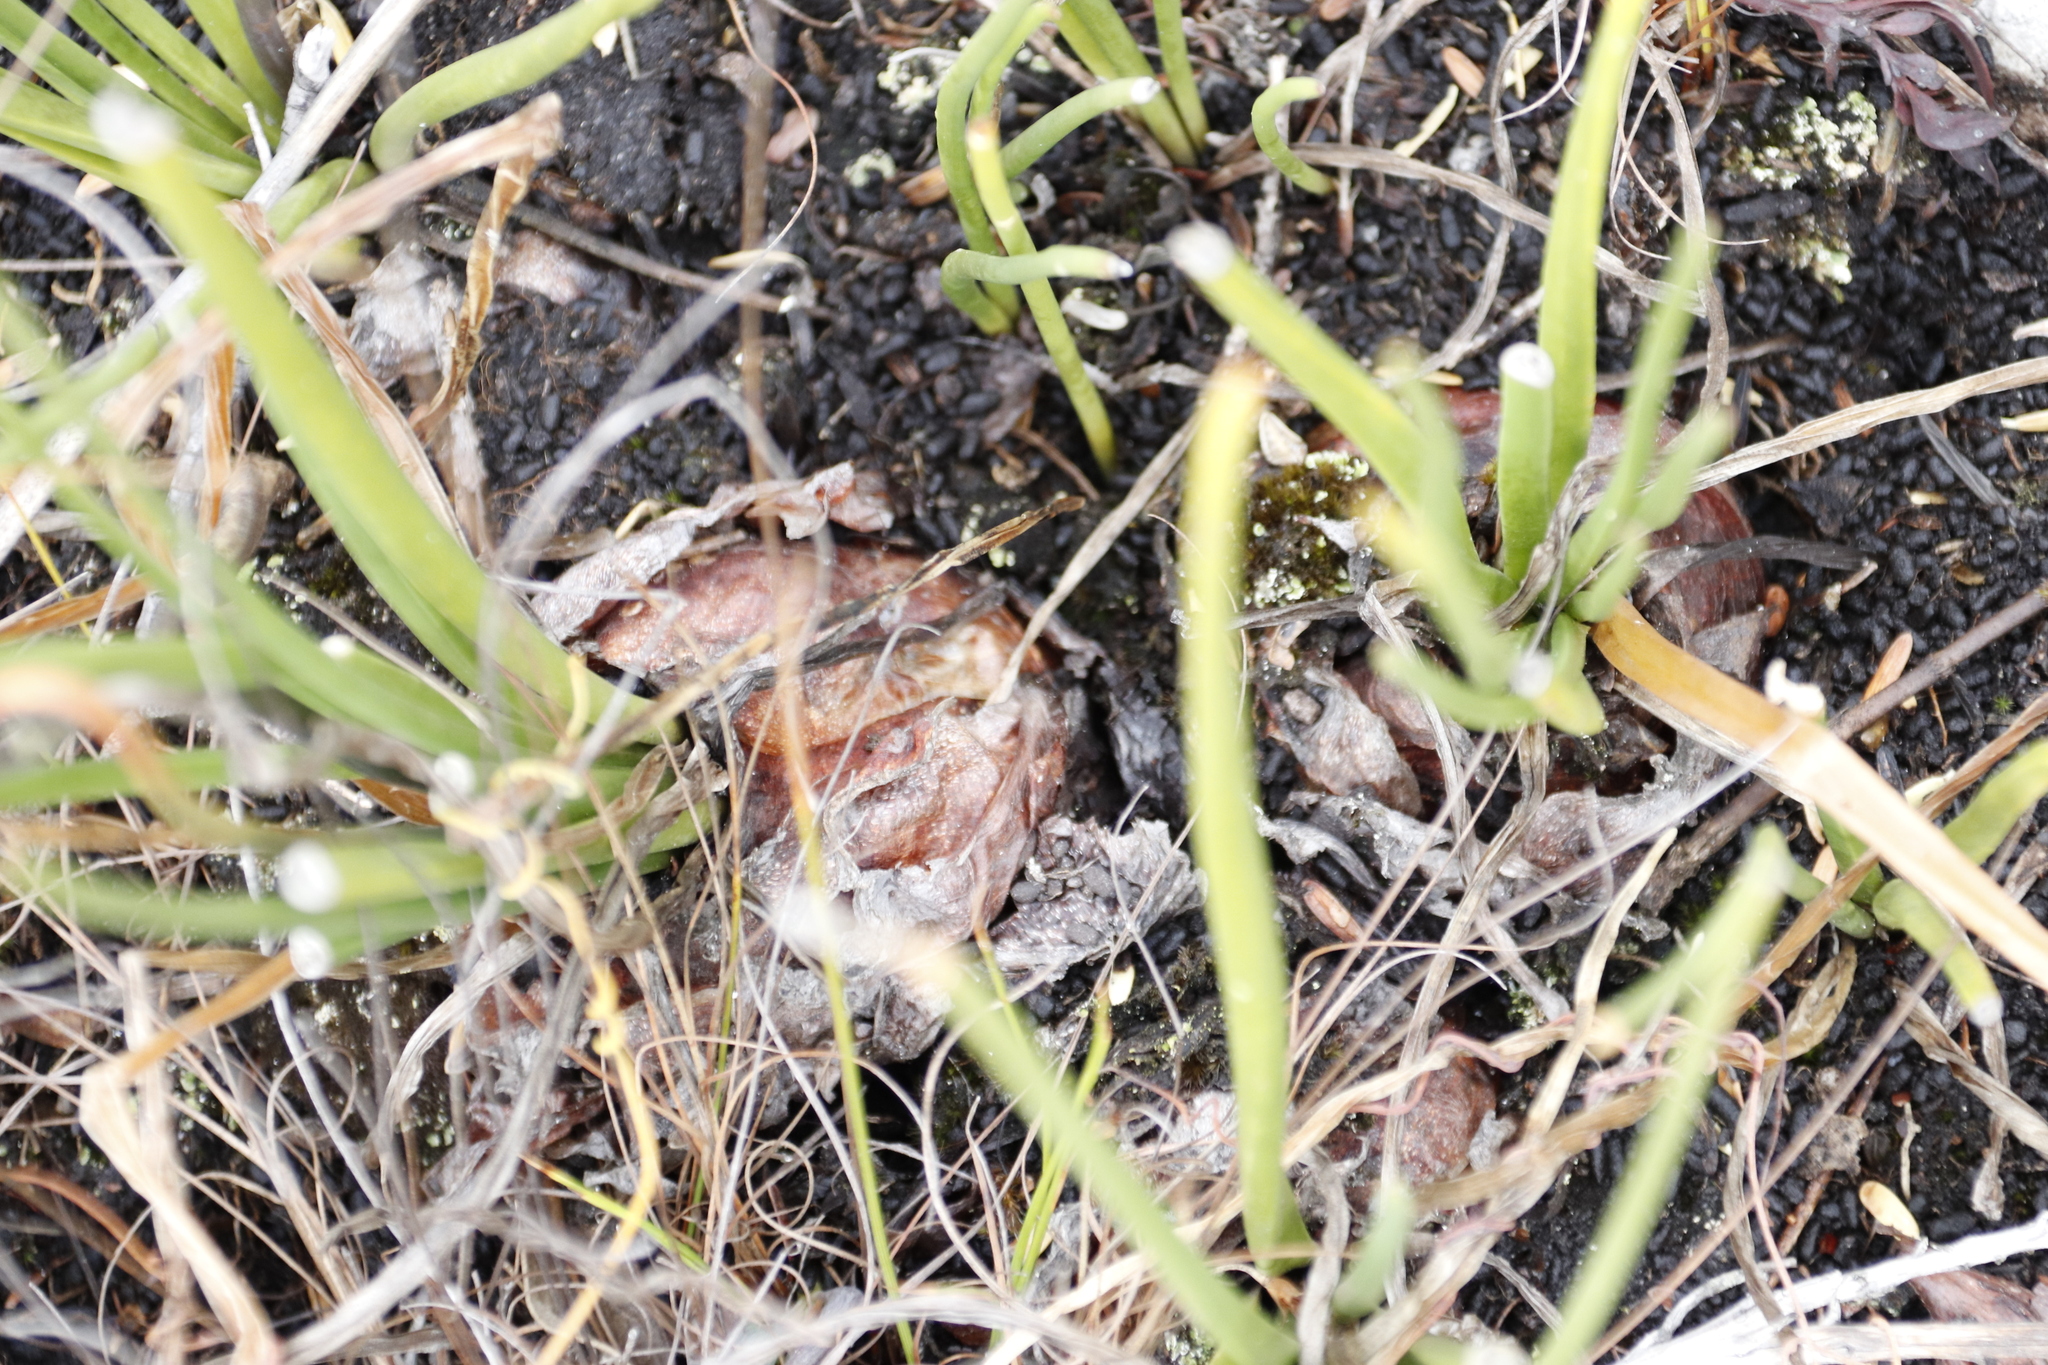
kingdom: Plantae
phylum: Tracheophyta
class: Liliopsida
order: Asparagales
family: Asparagaceae
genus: Drimia
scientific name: Drimia media
